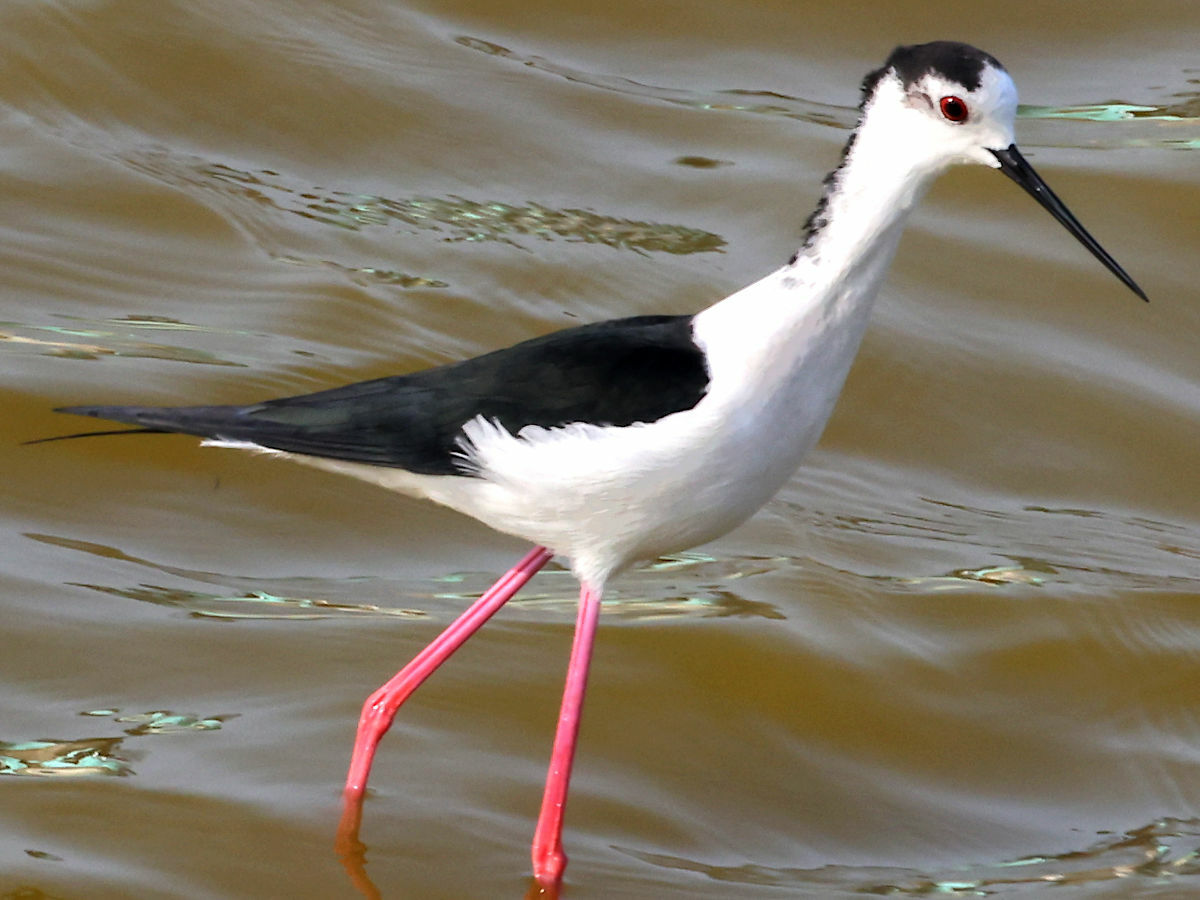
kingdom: Animalia
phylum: Chordata
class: Aves
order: Charadriiformes
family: Recurvirostridae
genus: Himantopus
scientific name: Himantopus himantopus
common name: Black-winged stilt
